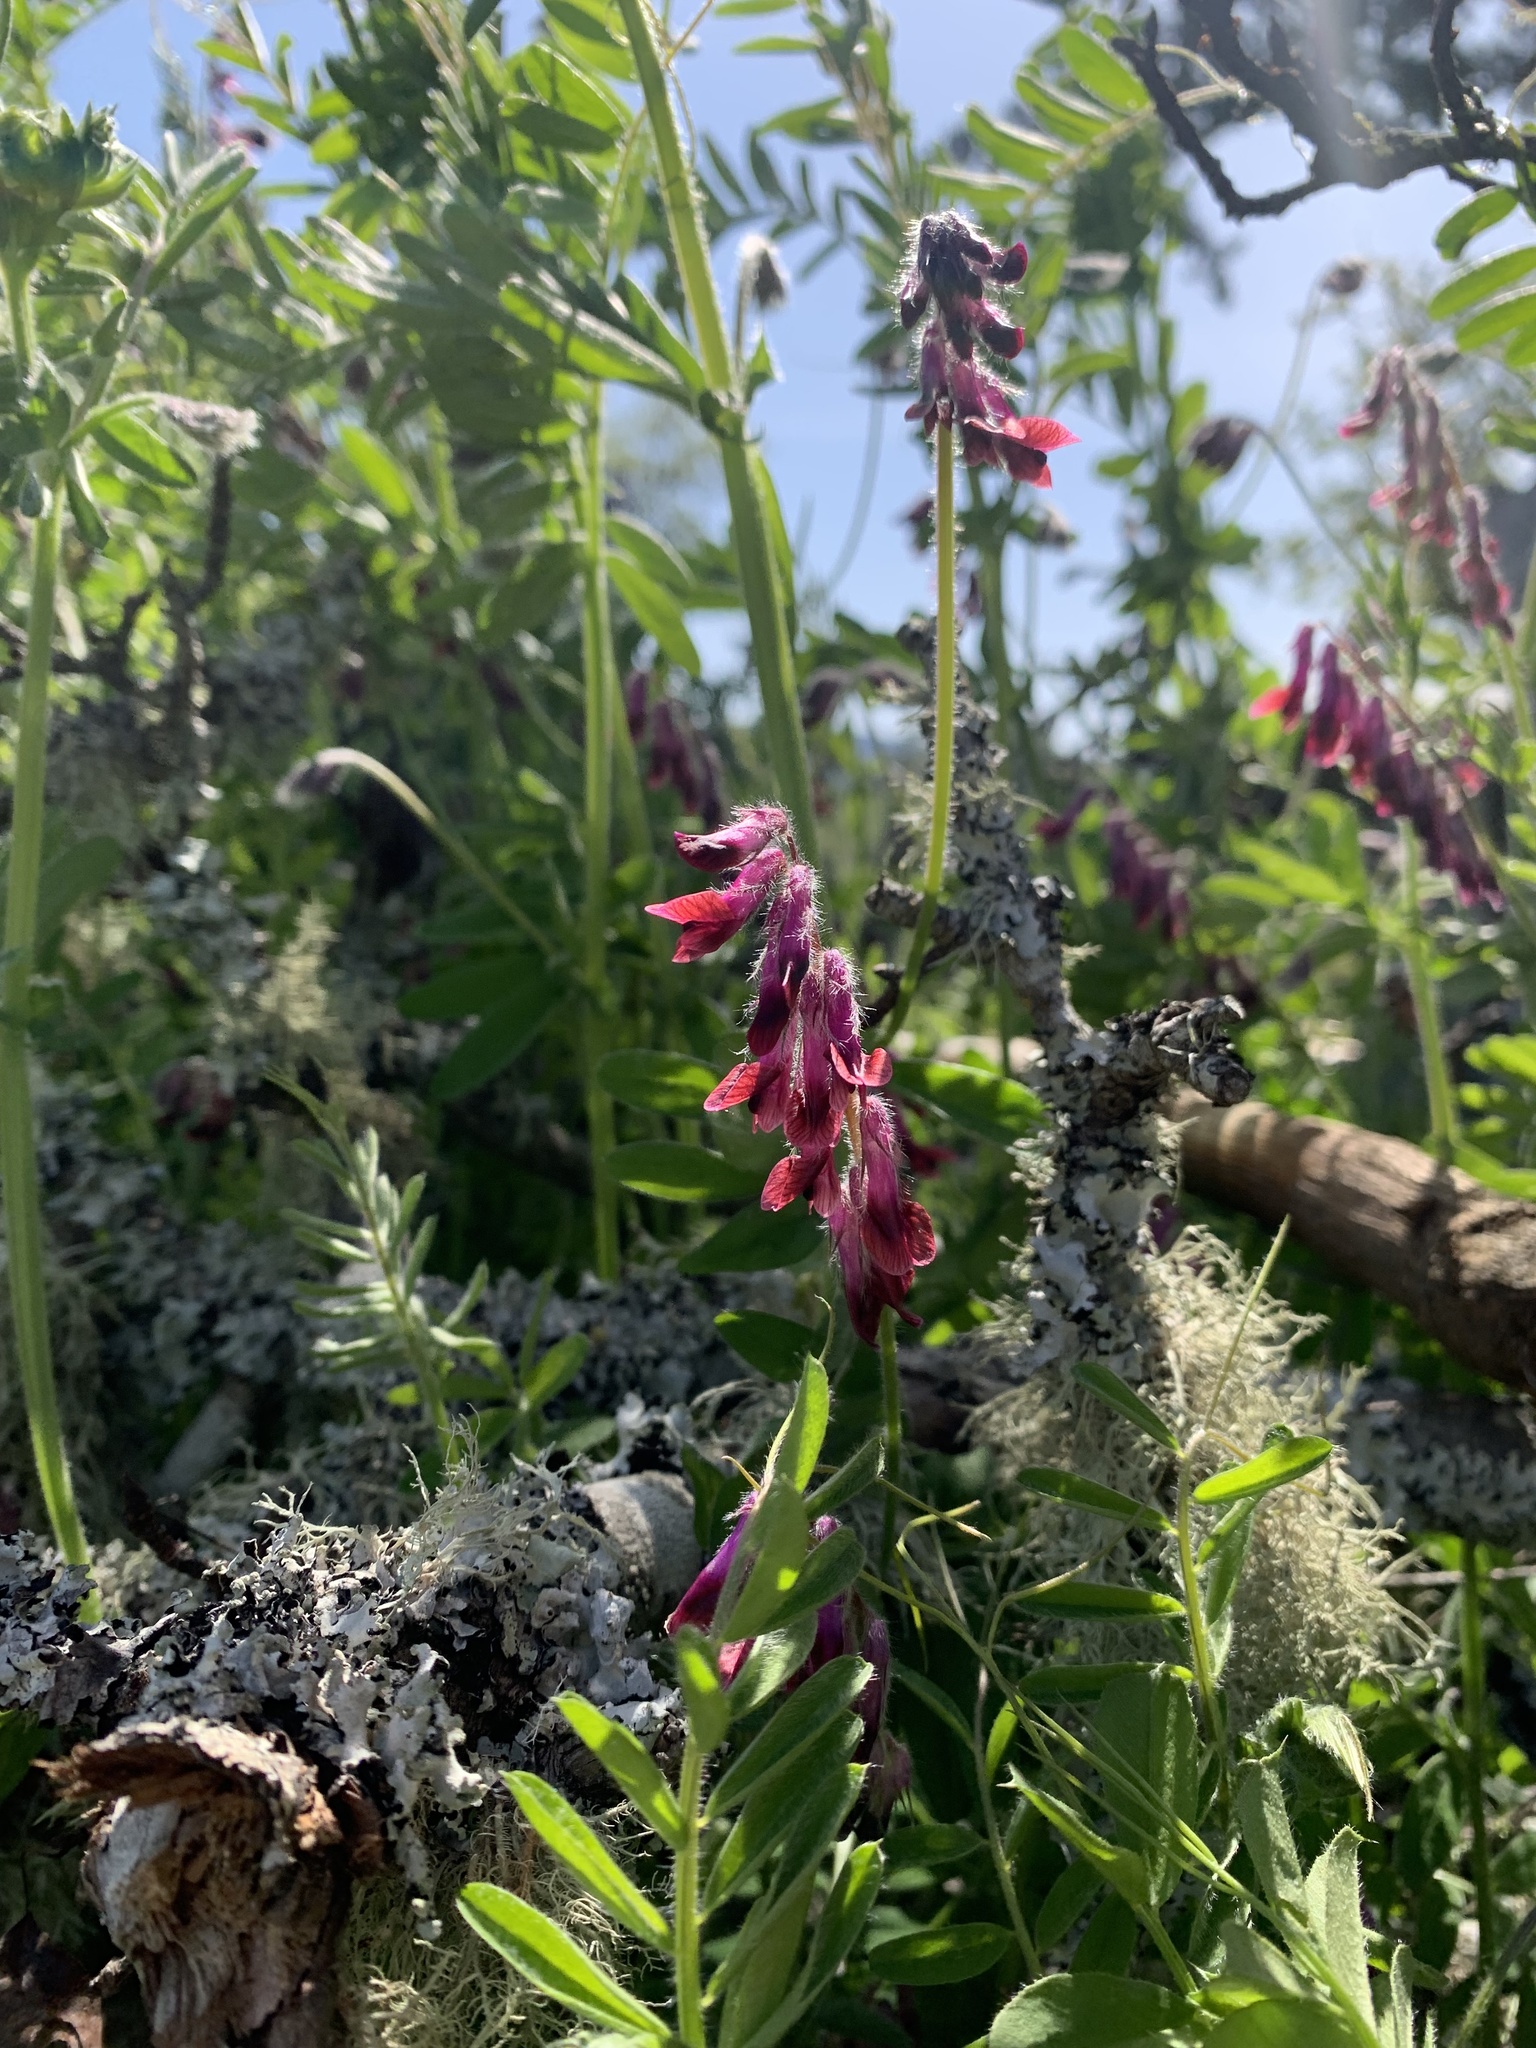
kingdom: Plantae
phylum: Tracheophyta
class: Magnoliopsida
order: Fabales
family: Fabaceae
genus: Vicia
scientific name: Vicia benghalensis
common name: Purple vetch
